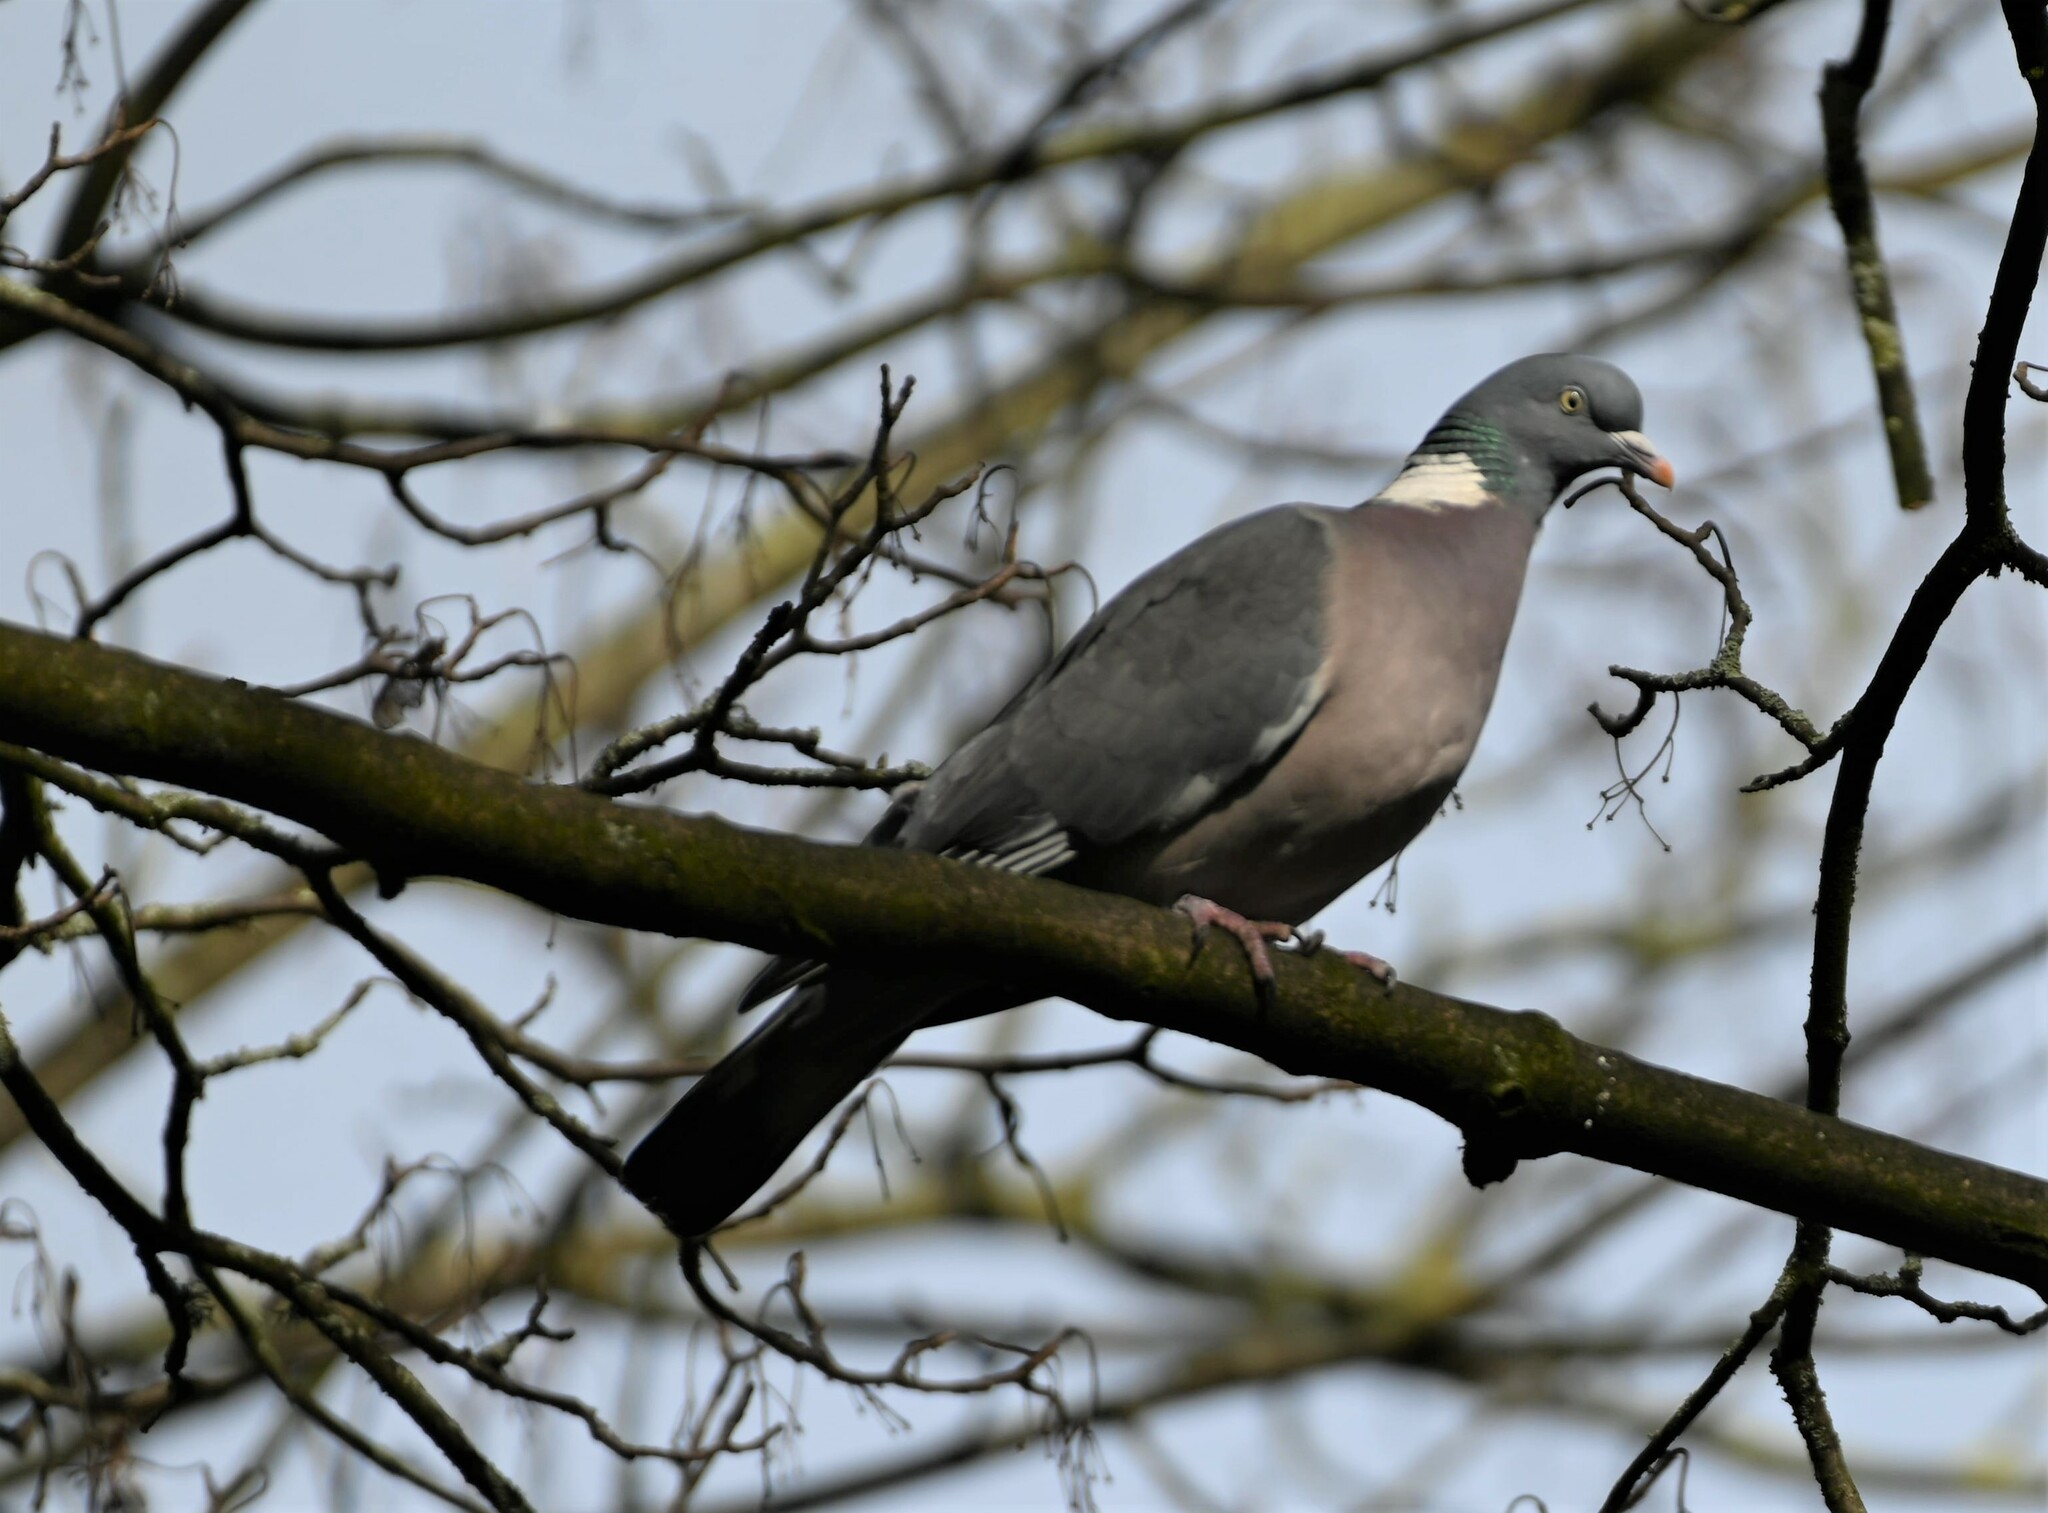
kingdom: Animalia
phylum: Chordata
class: Aves
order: Columbiformes
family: Columbidae
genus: Columba
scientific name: Columba palumbus
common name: Common wood pigeon
